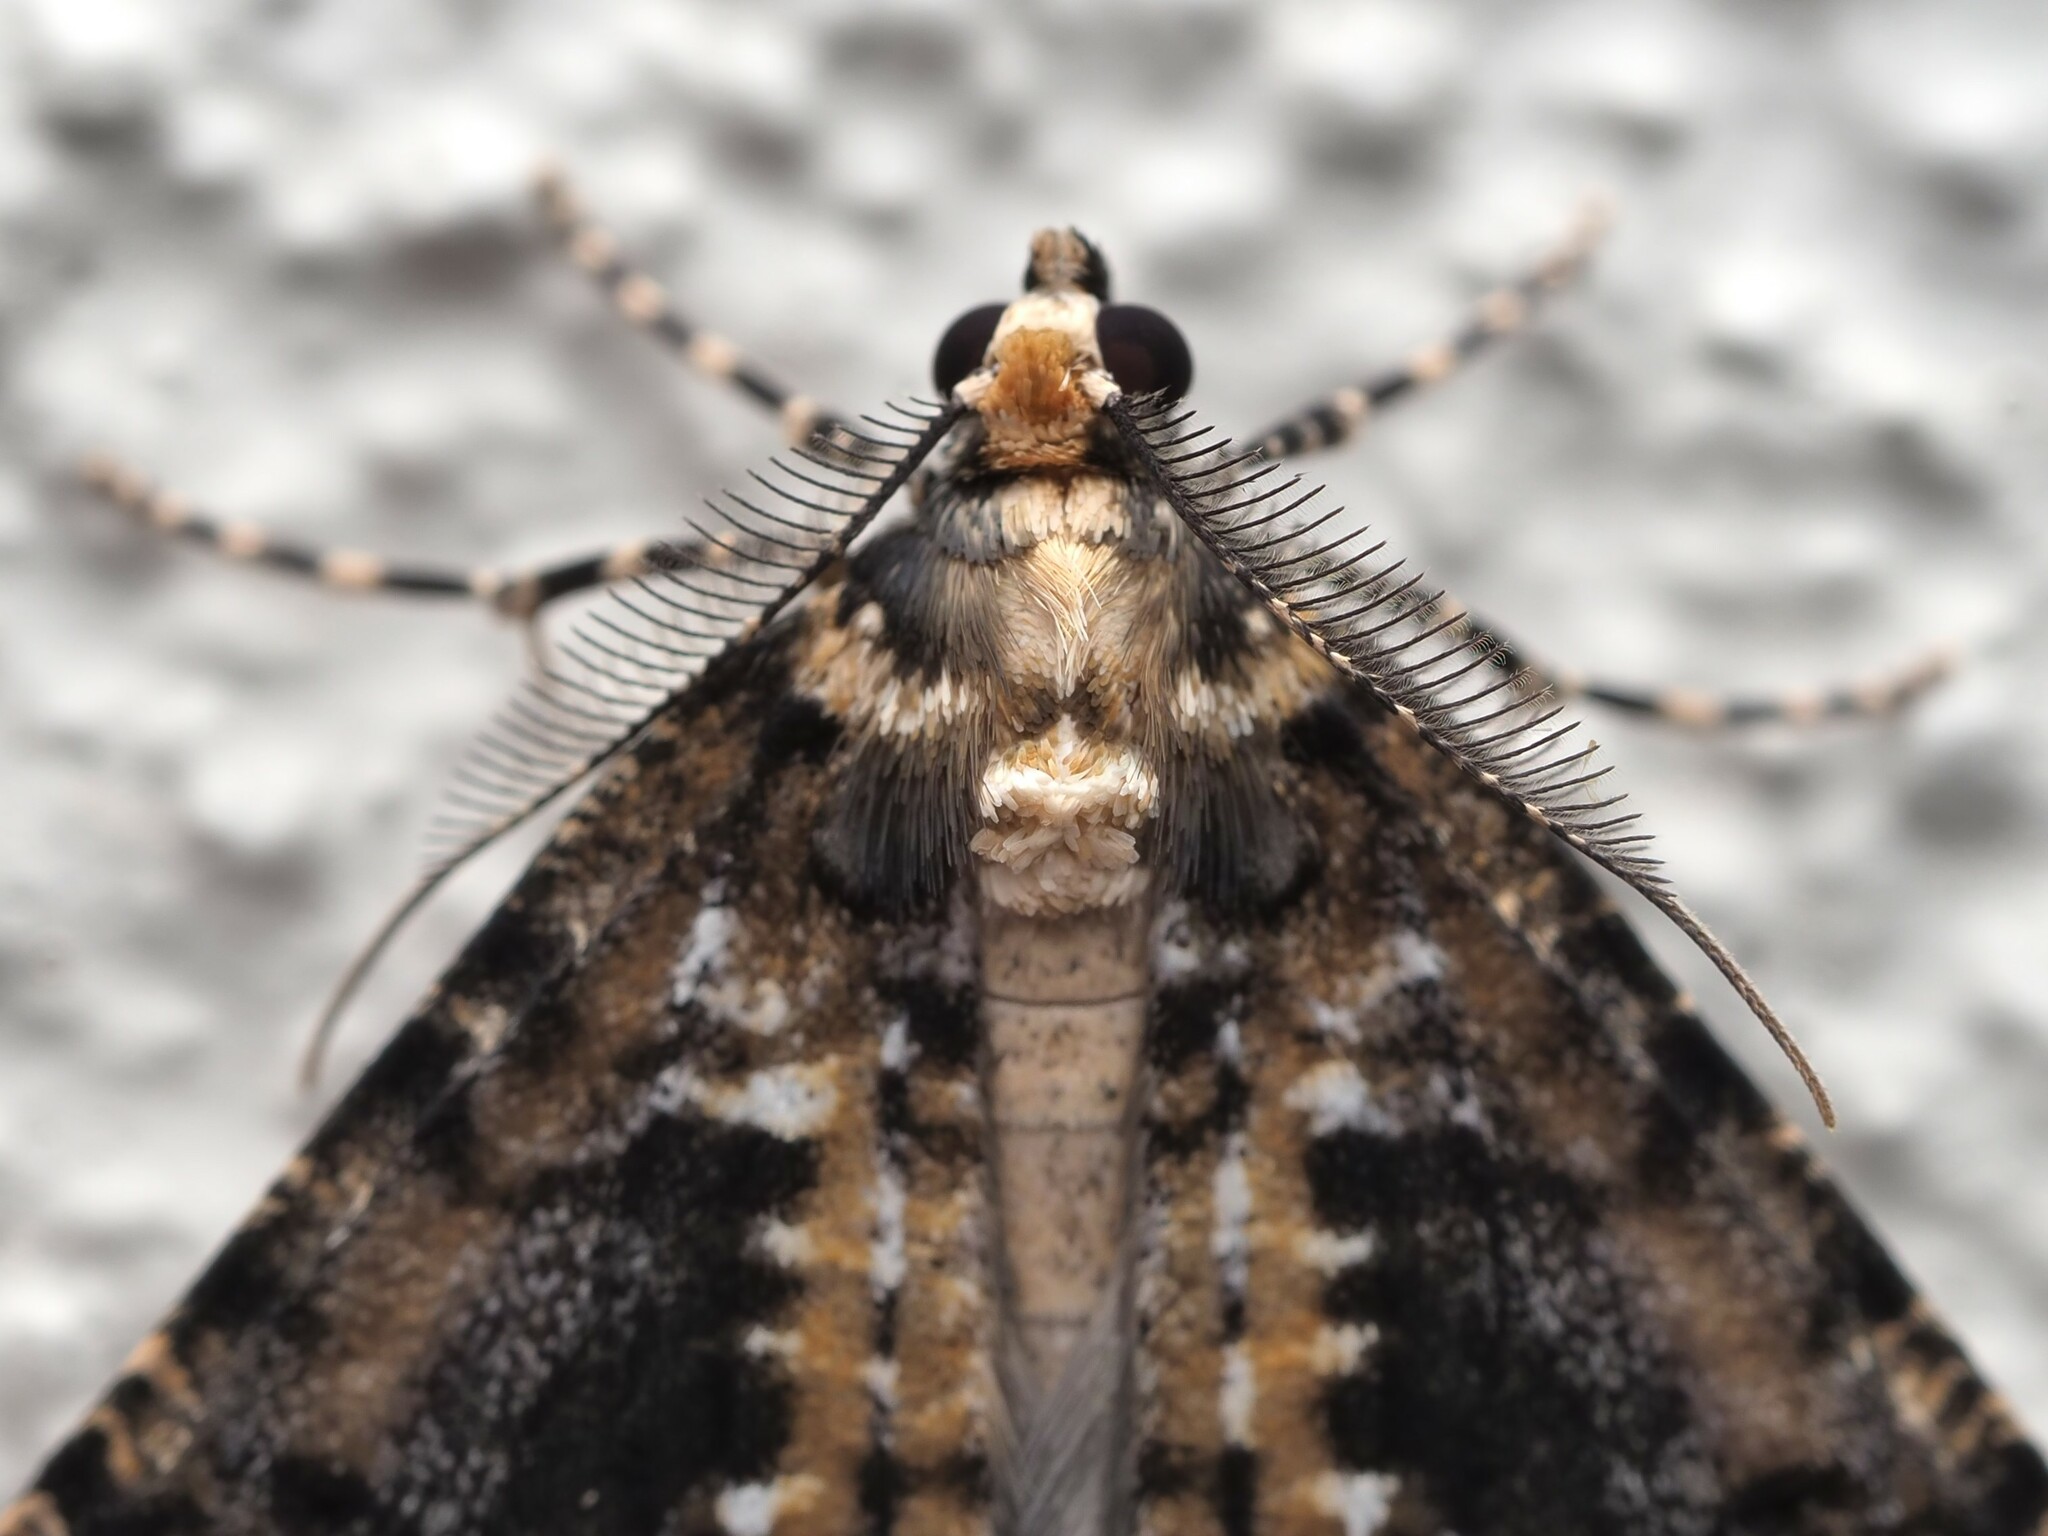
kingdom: Animalia
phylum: Arthropoda
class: Insecta
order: Lepidoptera
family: Geometridae
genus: Pseudocoremia
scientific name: Pseudocoremia leucelaea
